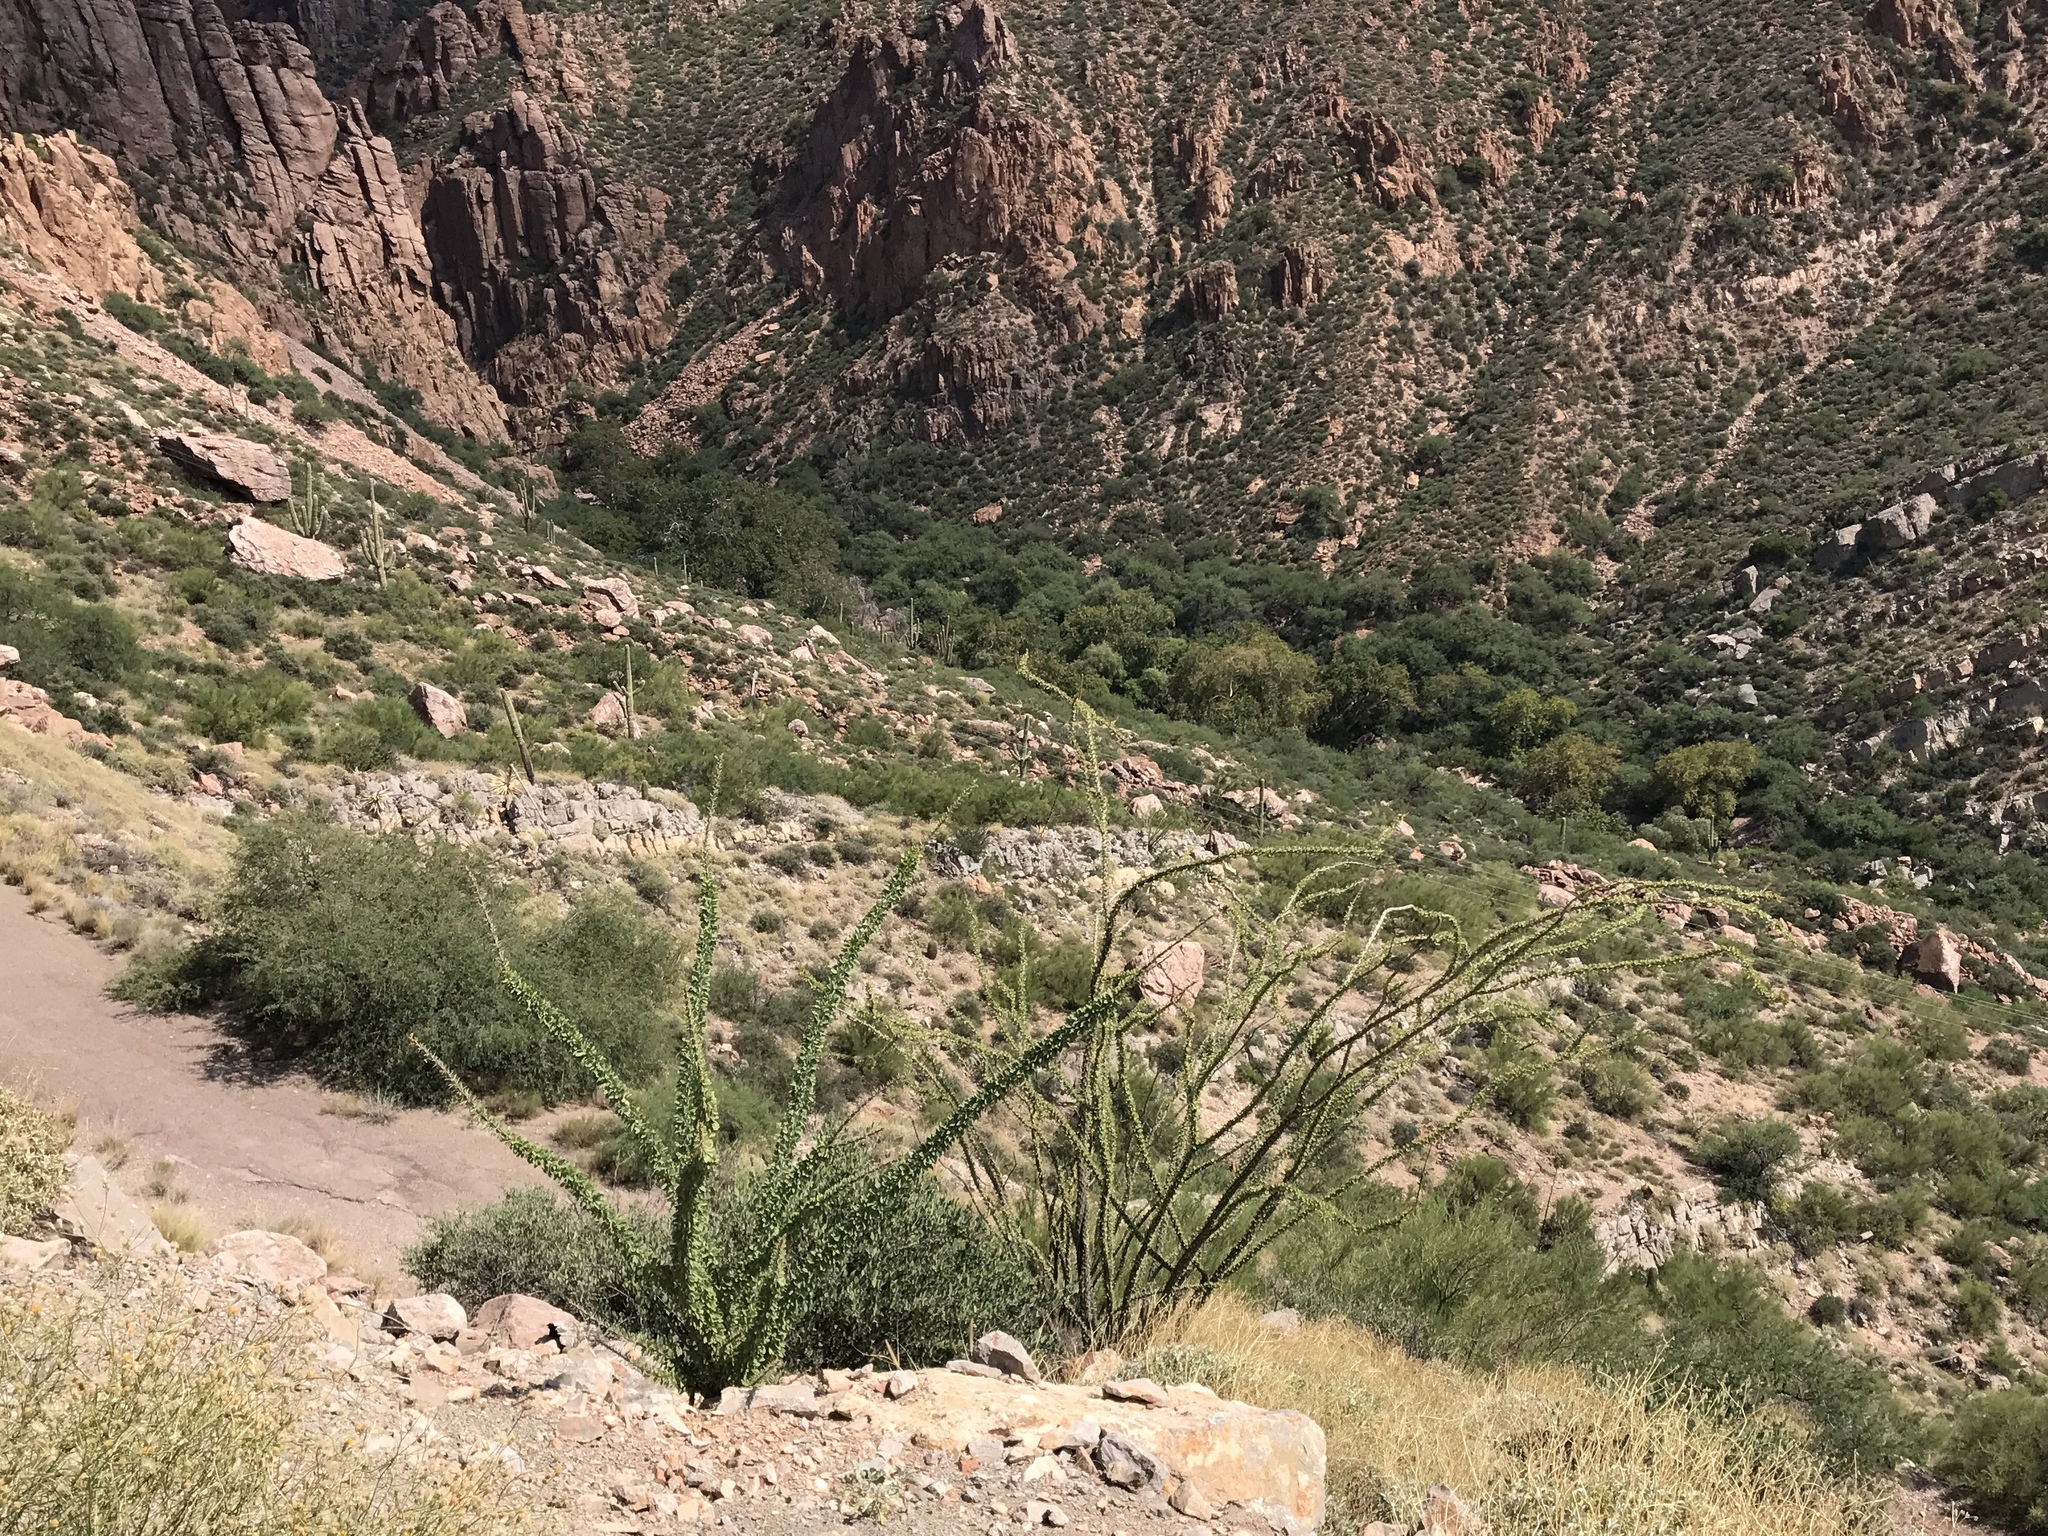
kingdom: Plantae
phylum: Tracheophyta
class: Magnoliopsida
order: Ericales
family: Fouquieriaceae
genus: Fouquieria
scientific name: Fouquieria splendens
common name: Vine-cactus
